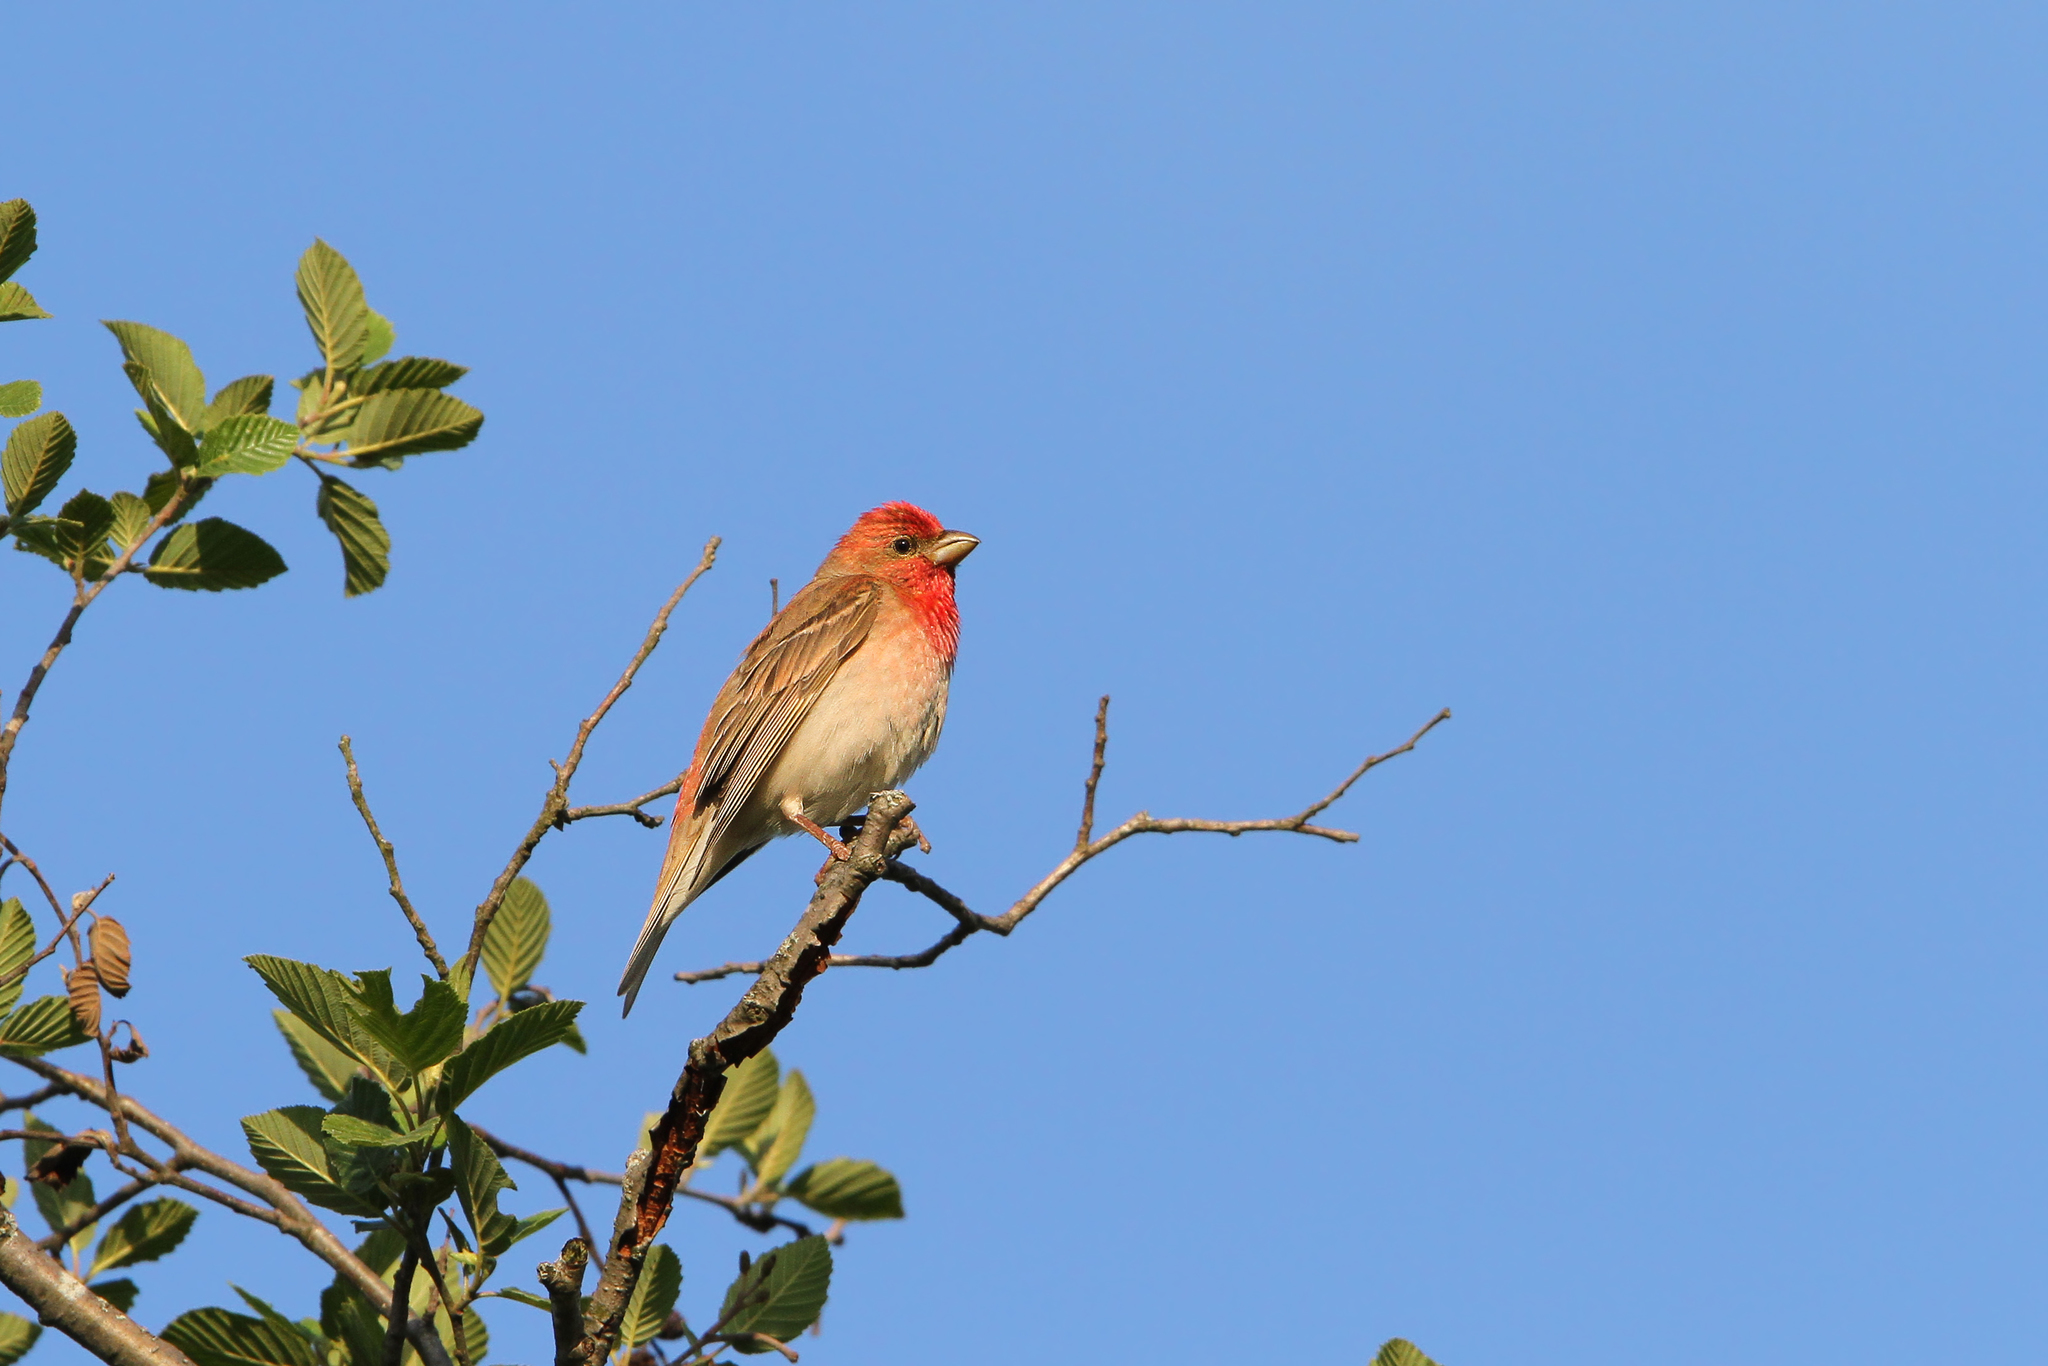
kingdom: Animalia
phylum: Chordata
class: Aves
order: Passeriformes
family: Fringillidae
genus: Carpodacus
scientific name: Carpodacus erythrinus
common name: Common rosefinch
